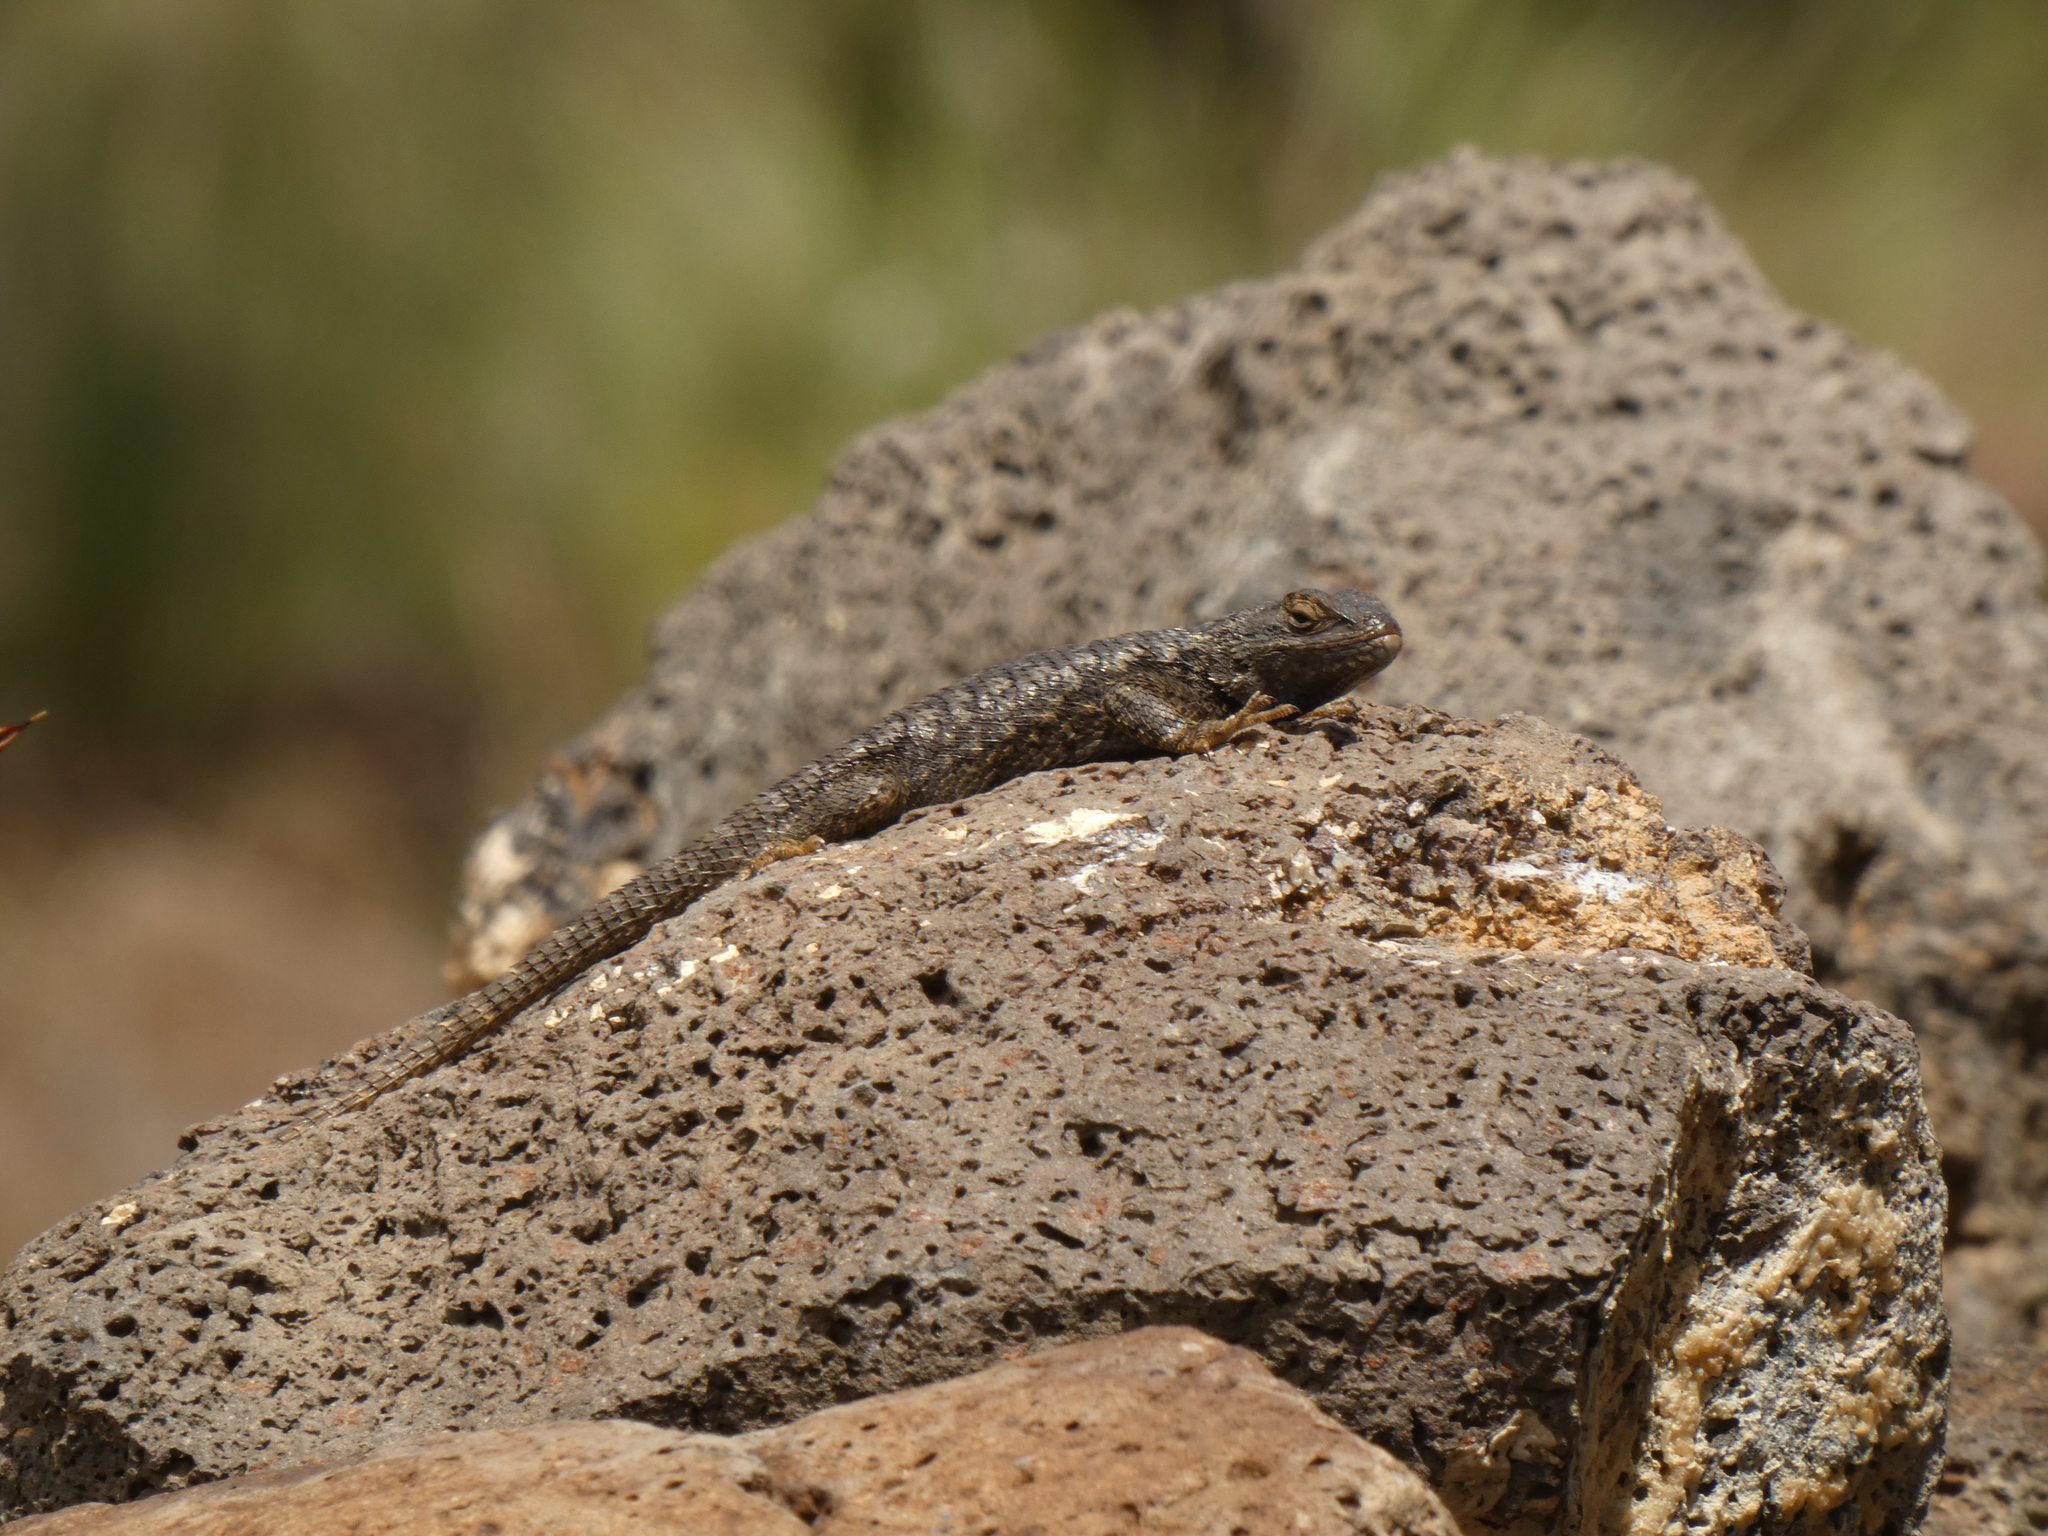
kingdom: Animalia
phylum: Chordata
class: Squamata
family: Phrynosomatidae
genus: Sceloporus
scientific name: Sceloporus occidentalis
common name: Western fence lizard
